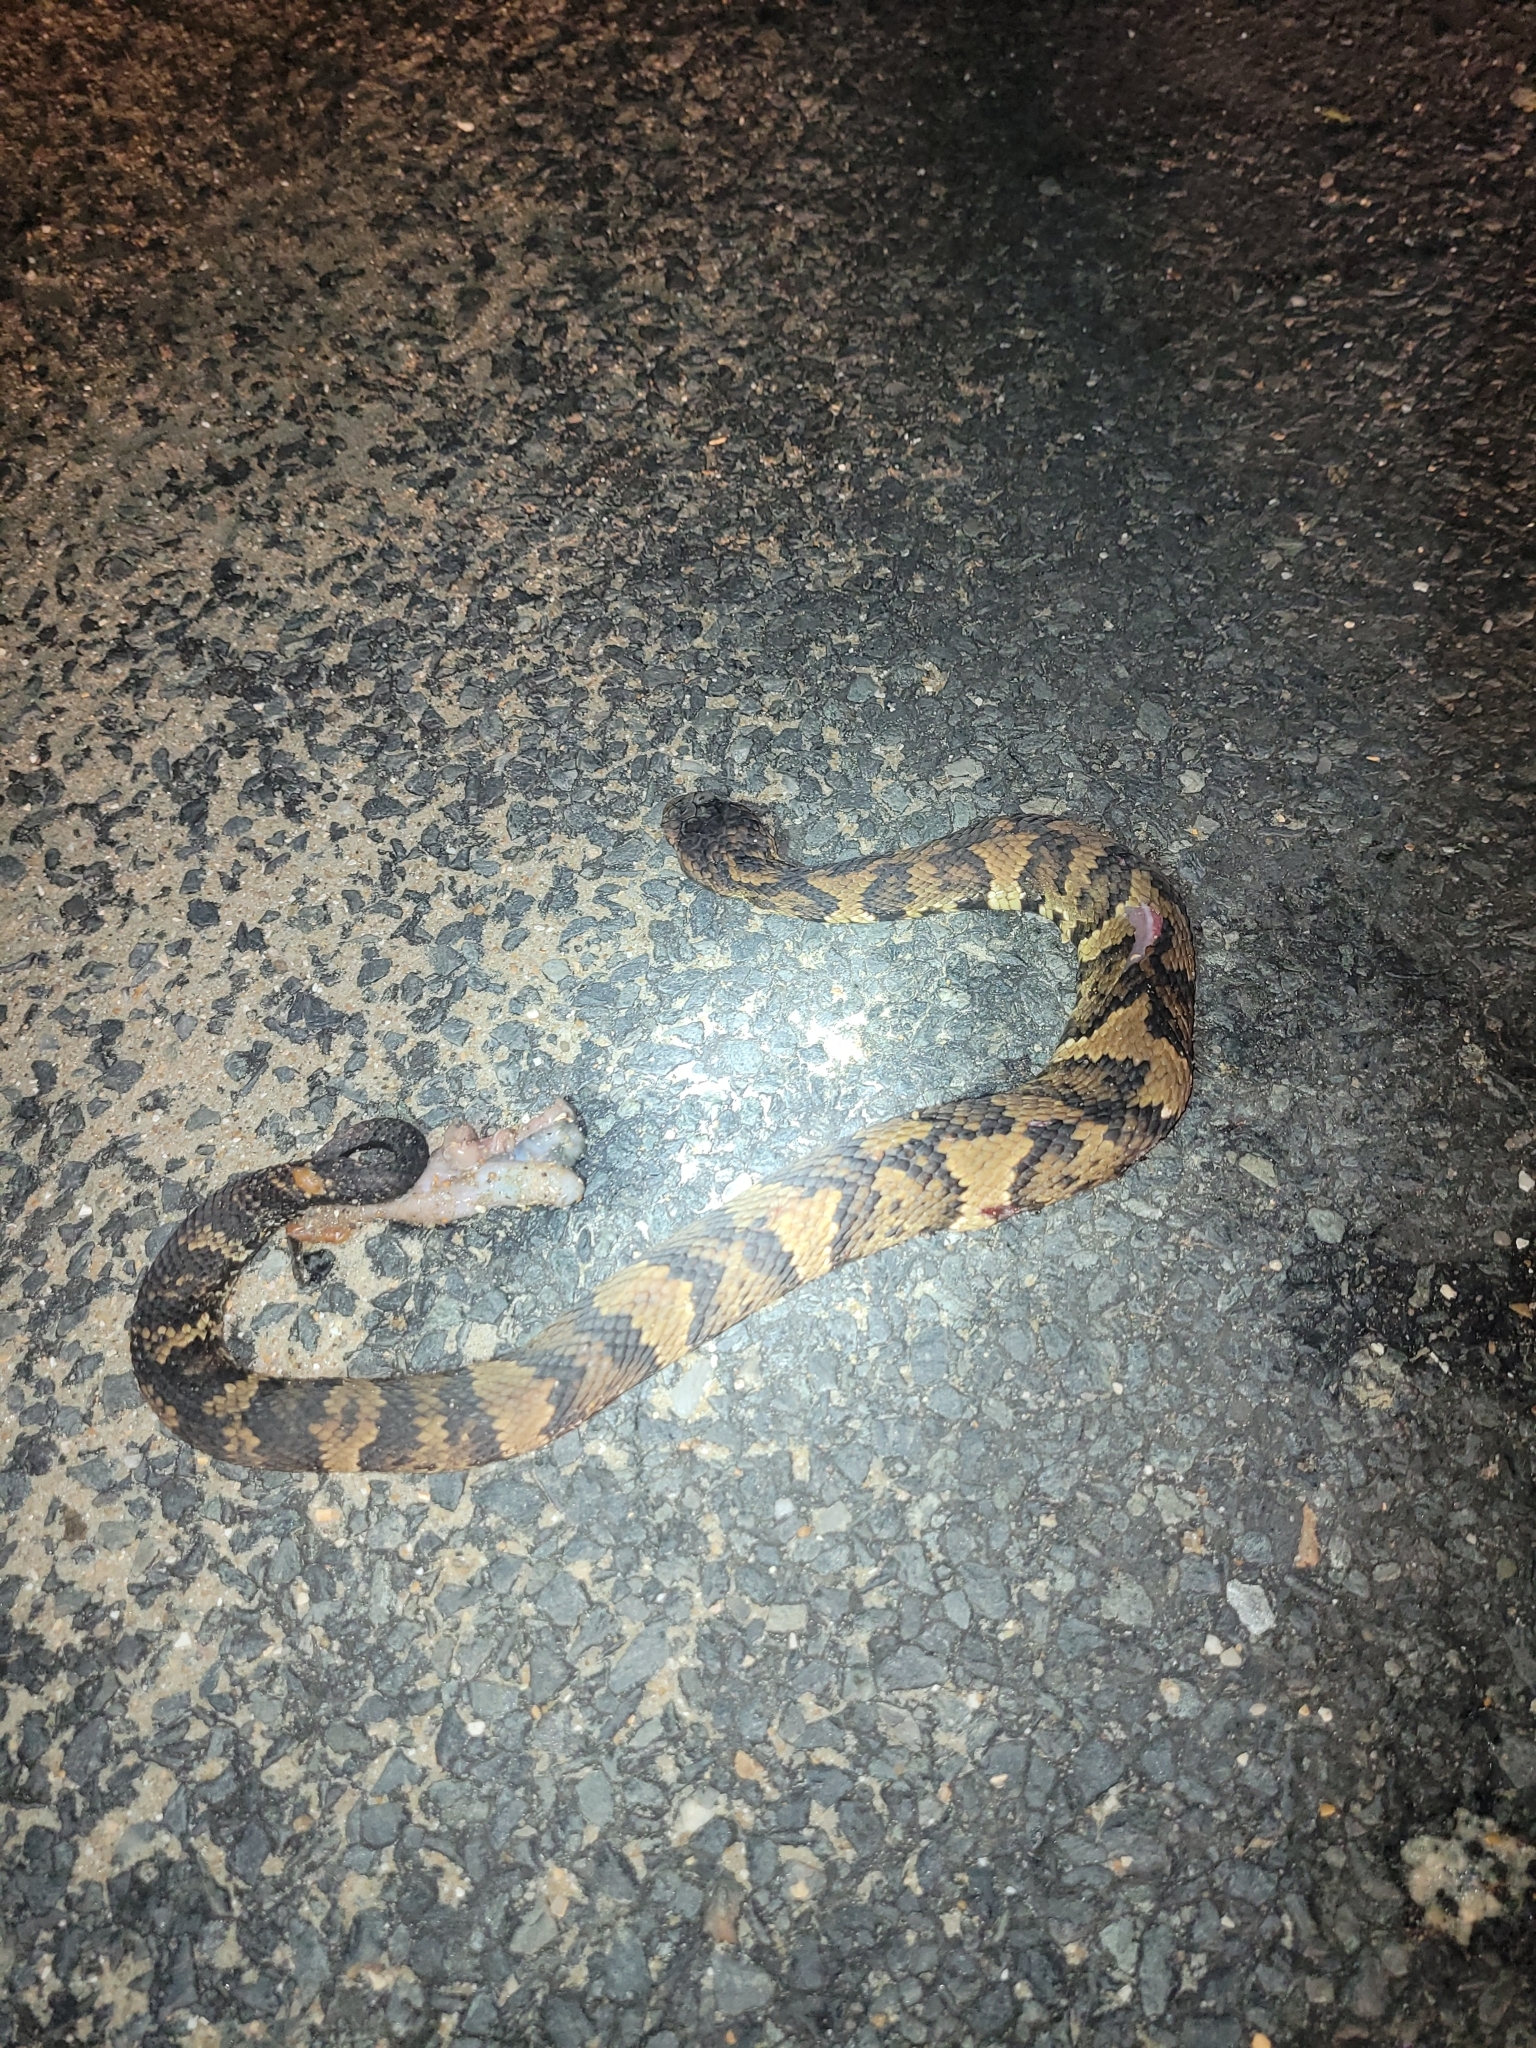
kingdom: Animalia
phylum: Chordata
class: Squamata
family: Viperidae
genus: Agkistrodon
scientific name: Agkistrodon piscivorus
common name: Cottonmouth
